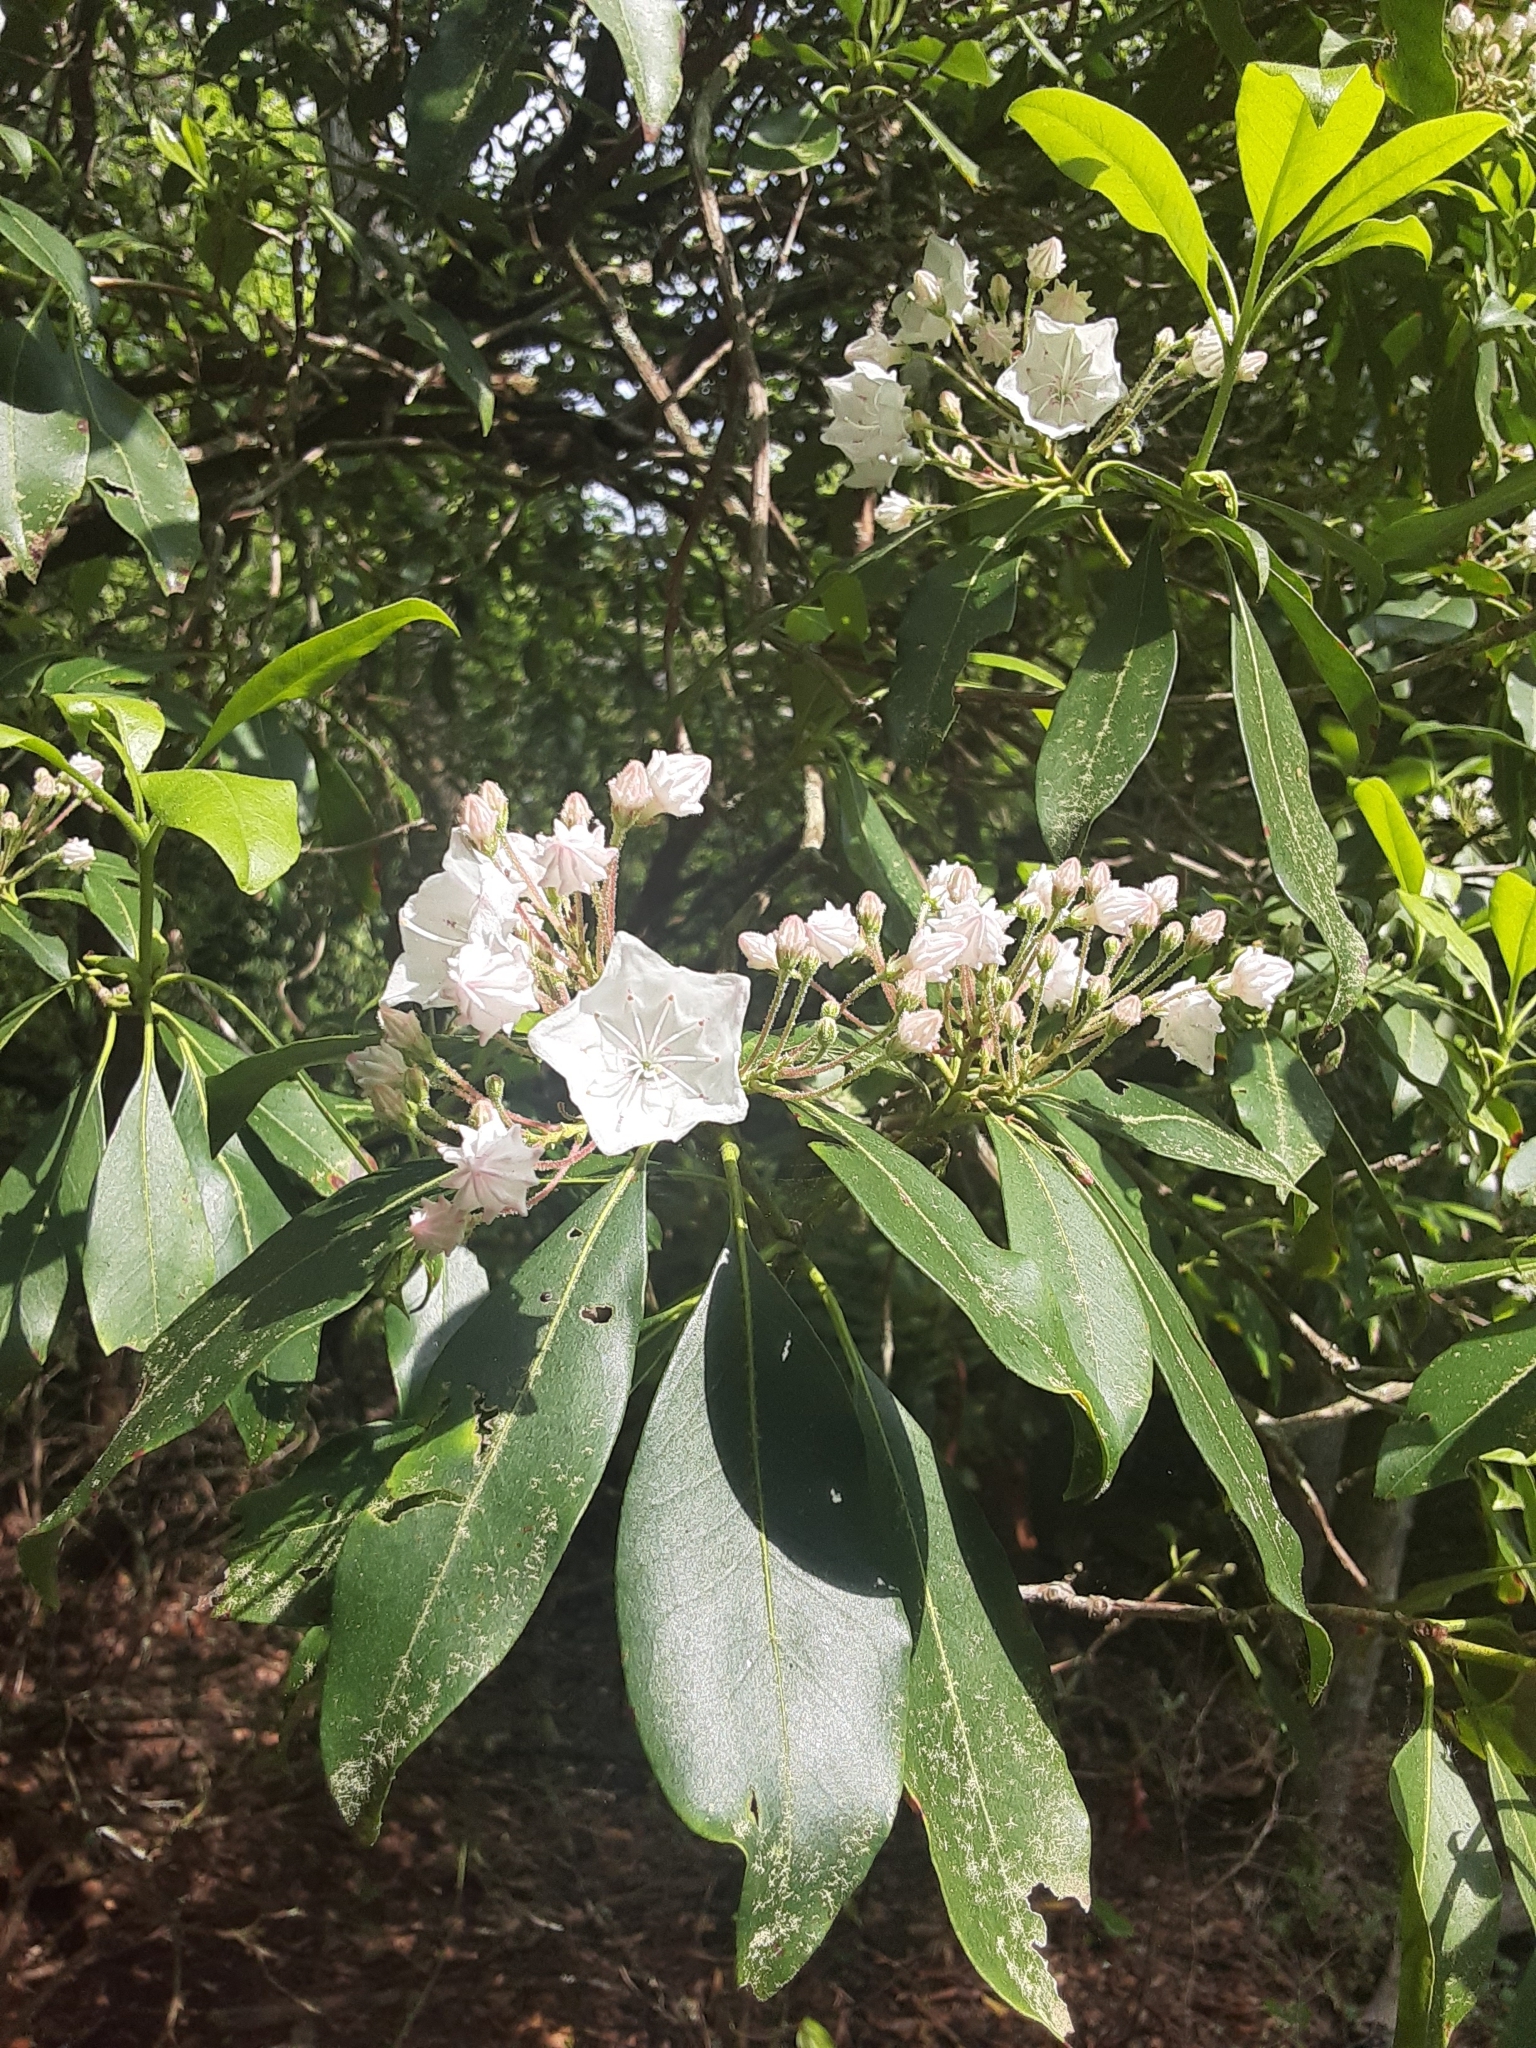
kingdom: Plantae
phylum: Tracheophyta
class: Magnoliopsida
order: Ericales
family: Ericaceae
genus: Kalmia
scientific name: Kalmia latifolia
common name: Mountain-laurel
